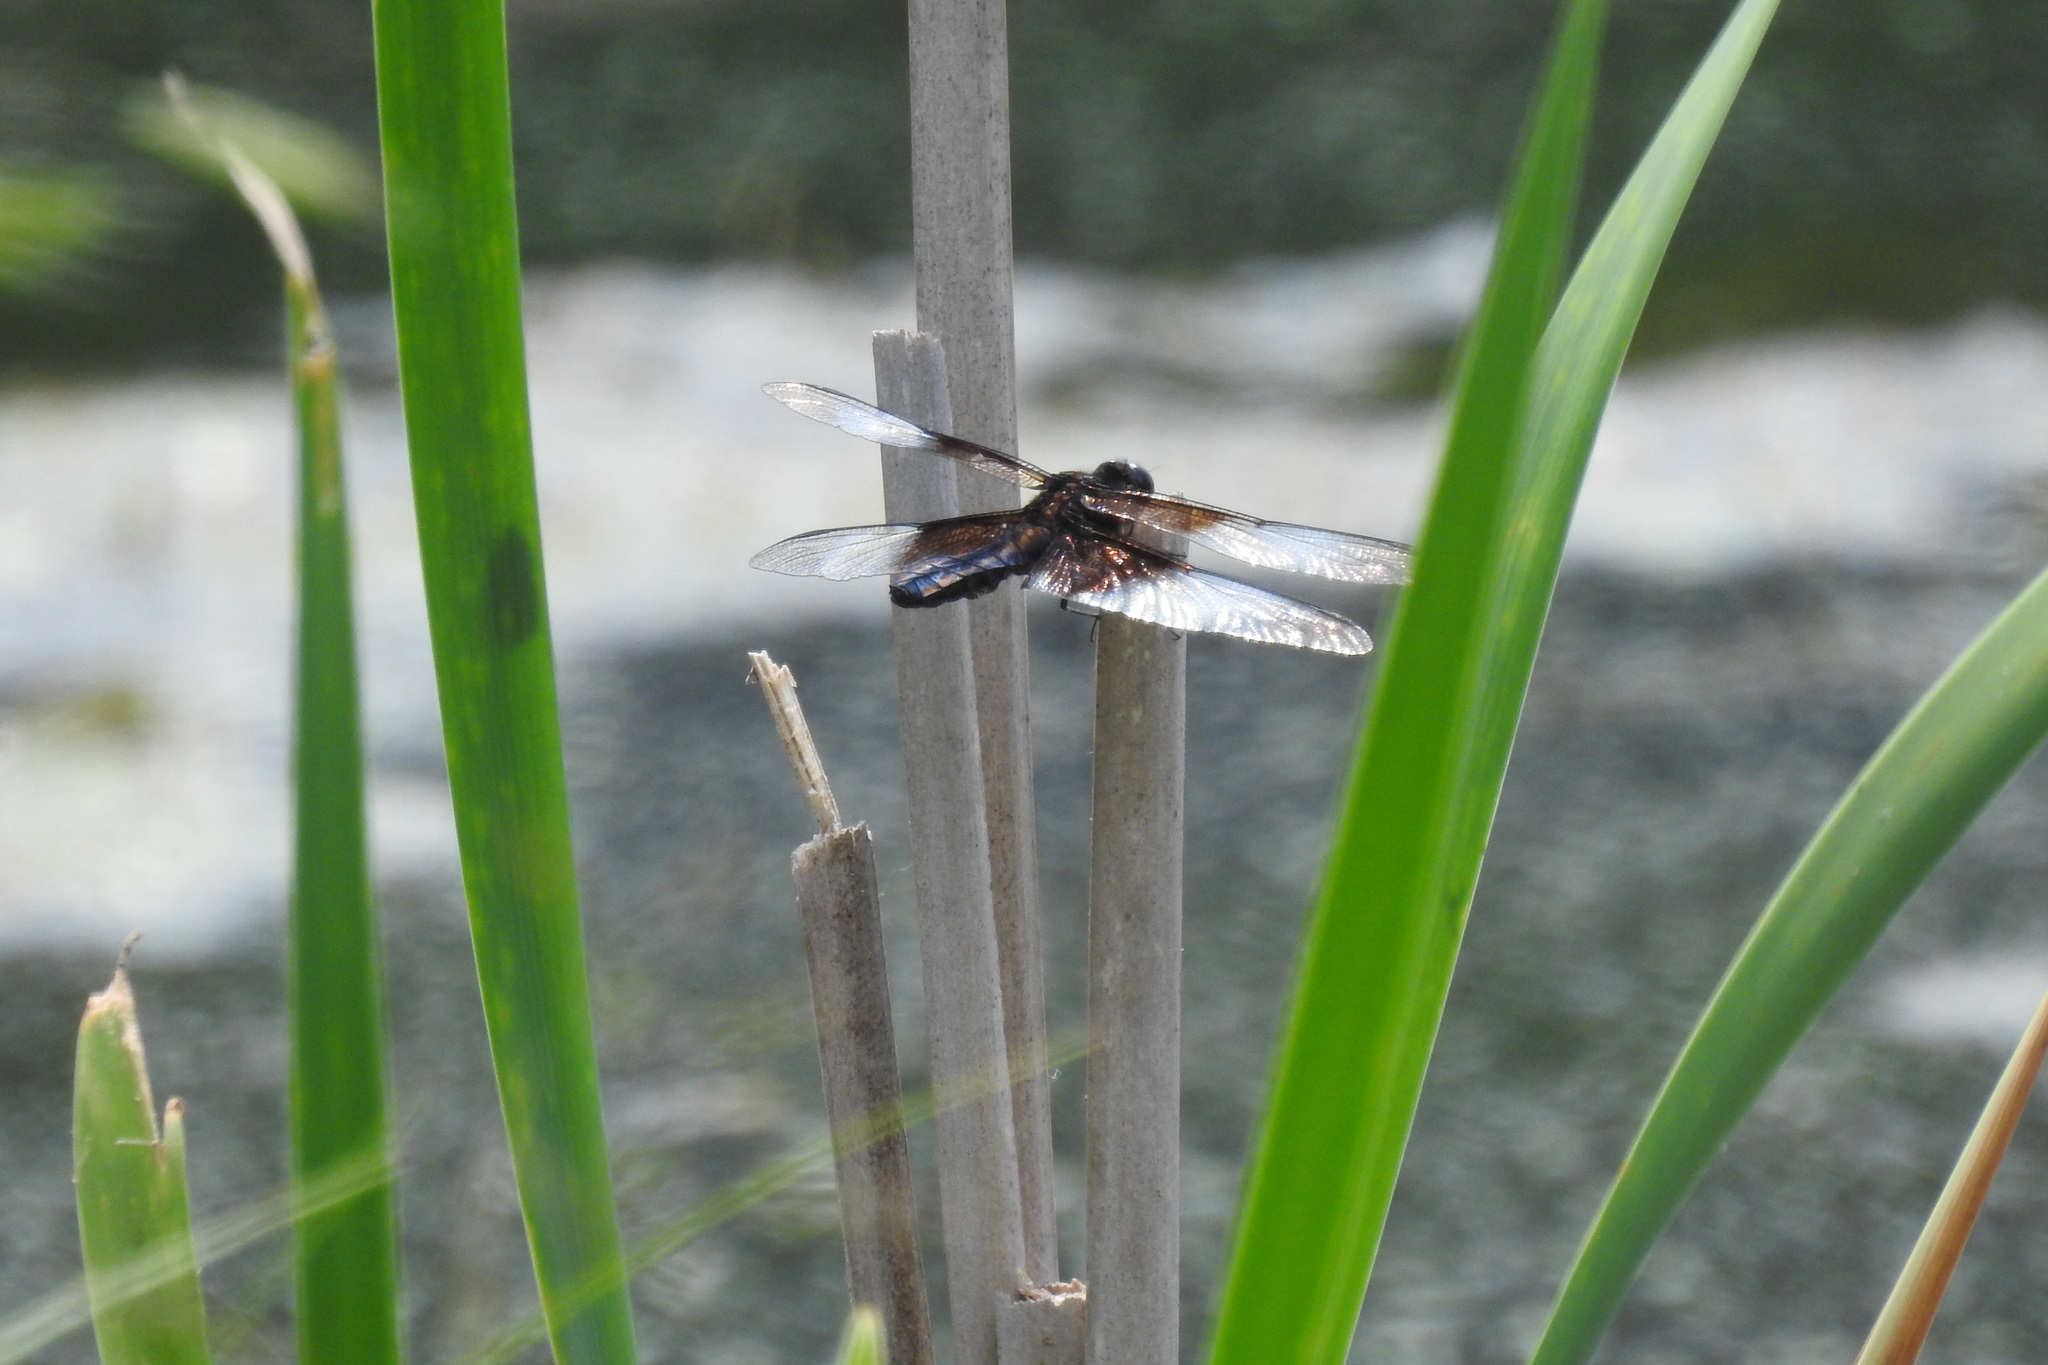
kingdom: Animalia
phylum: Arthropoda
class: Insecta
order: Odonata
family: Libellulidae
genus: Libellula
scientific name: Libellula luctuosa
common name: Widow skimmer
